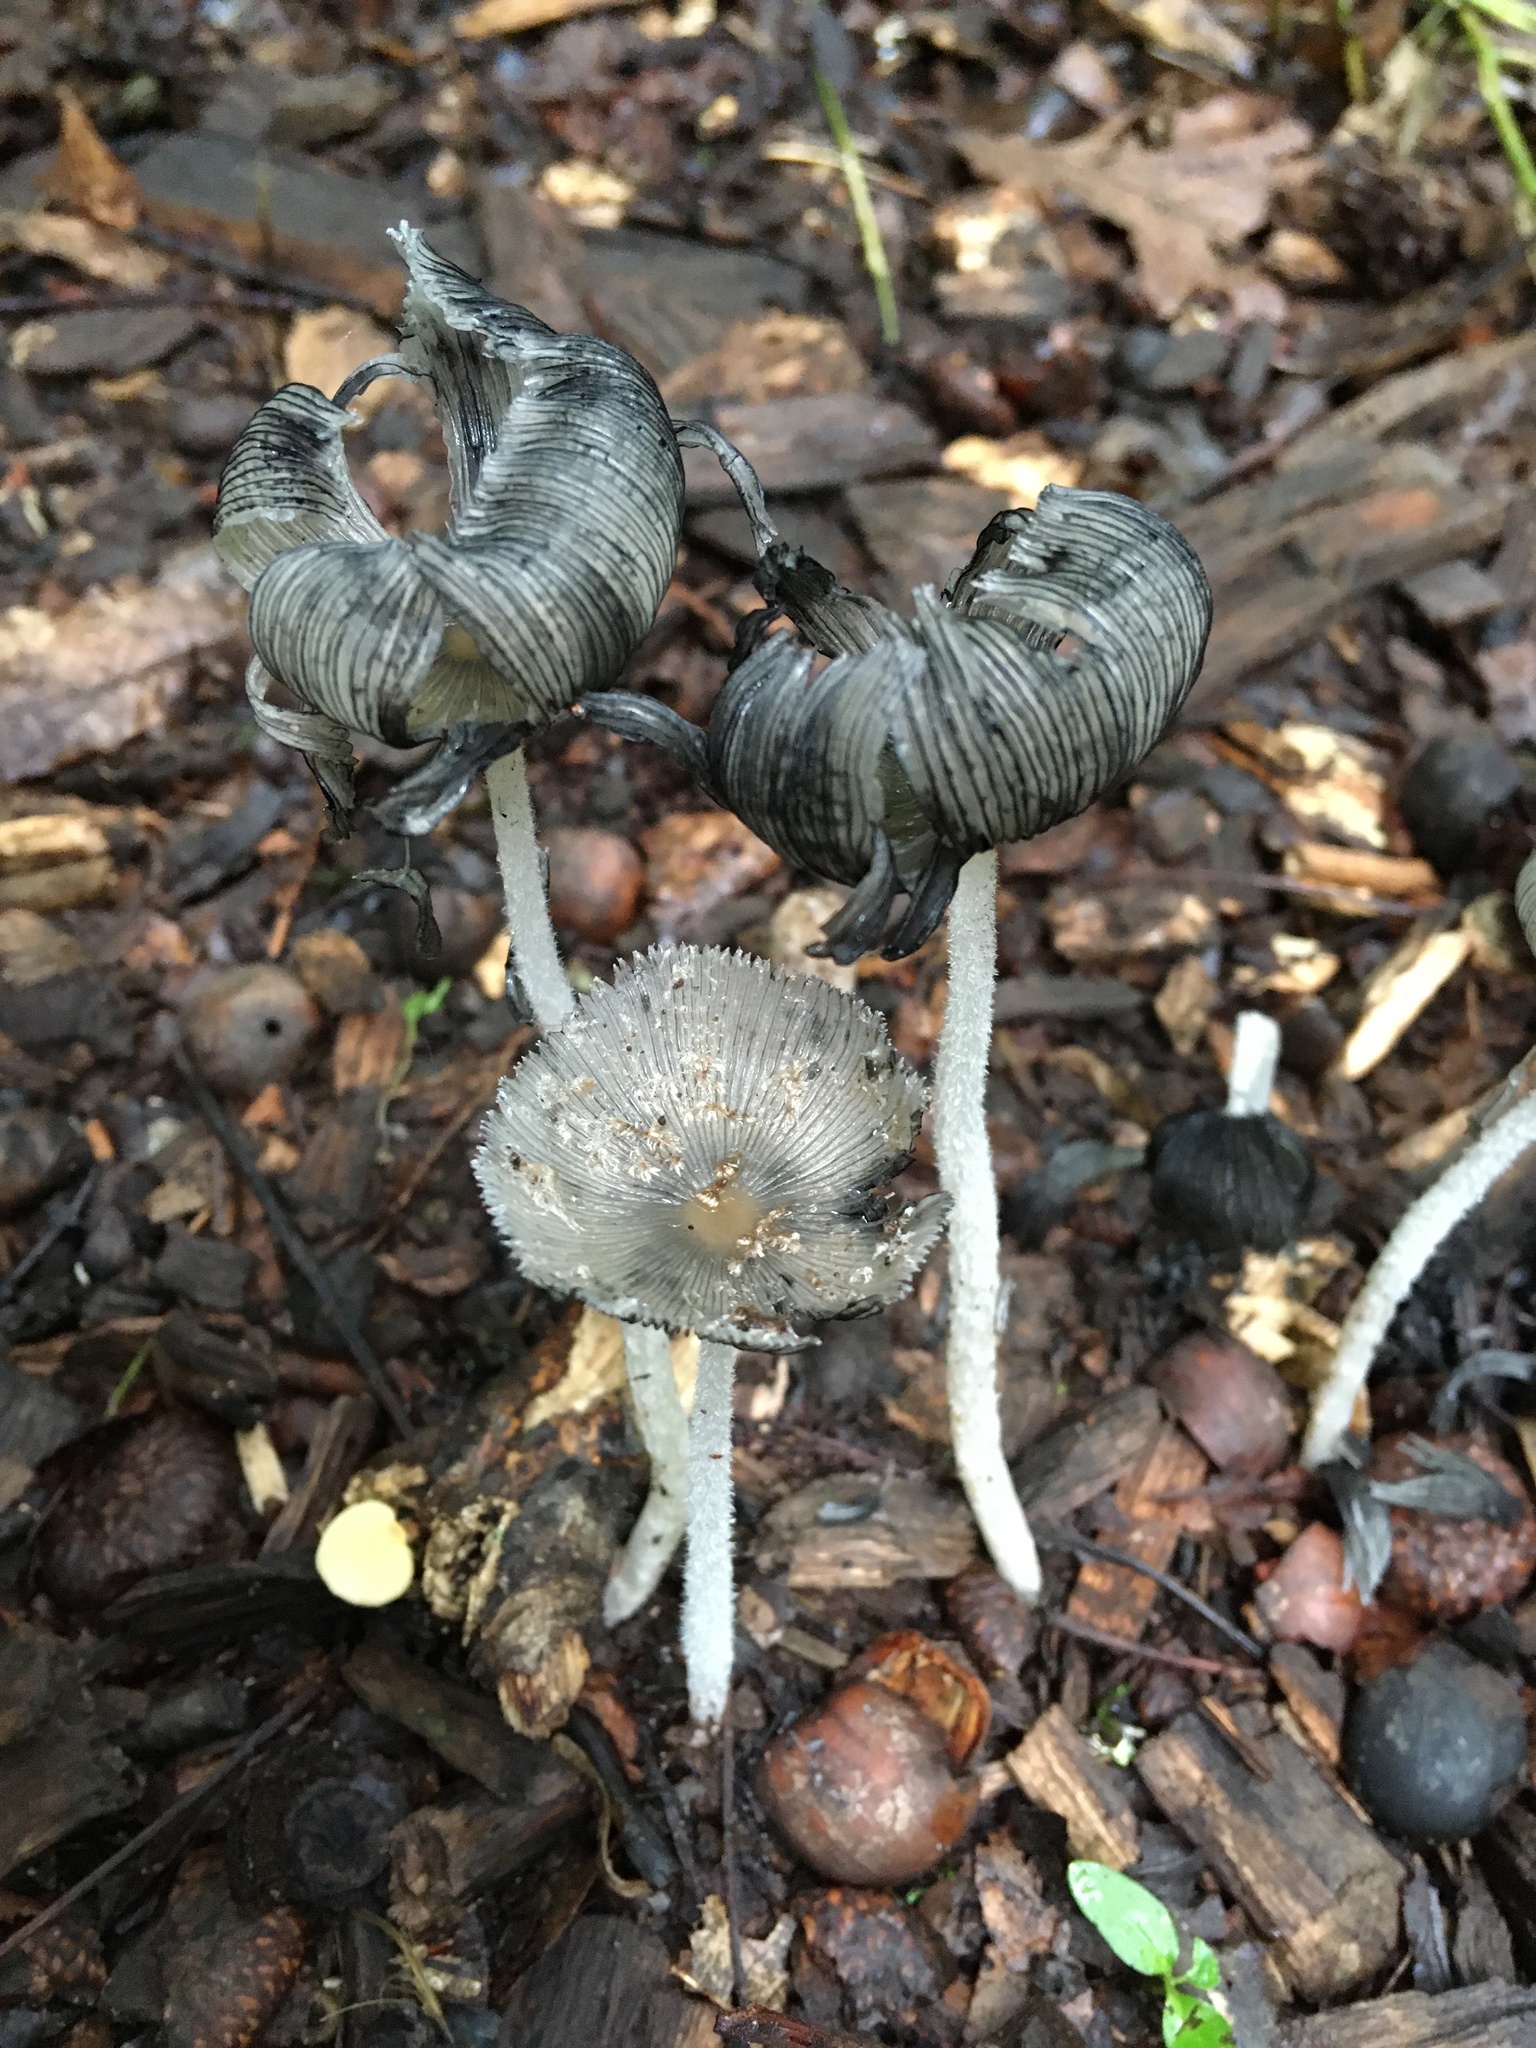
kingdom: Fungi
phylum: Basidiomycota
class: Agaricomycetes
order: Agaricales
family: Psathyrellaceae
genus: Coprinopsis
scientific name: Coprinopsis lagopus
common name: Hare'sfoot inkcap
